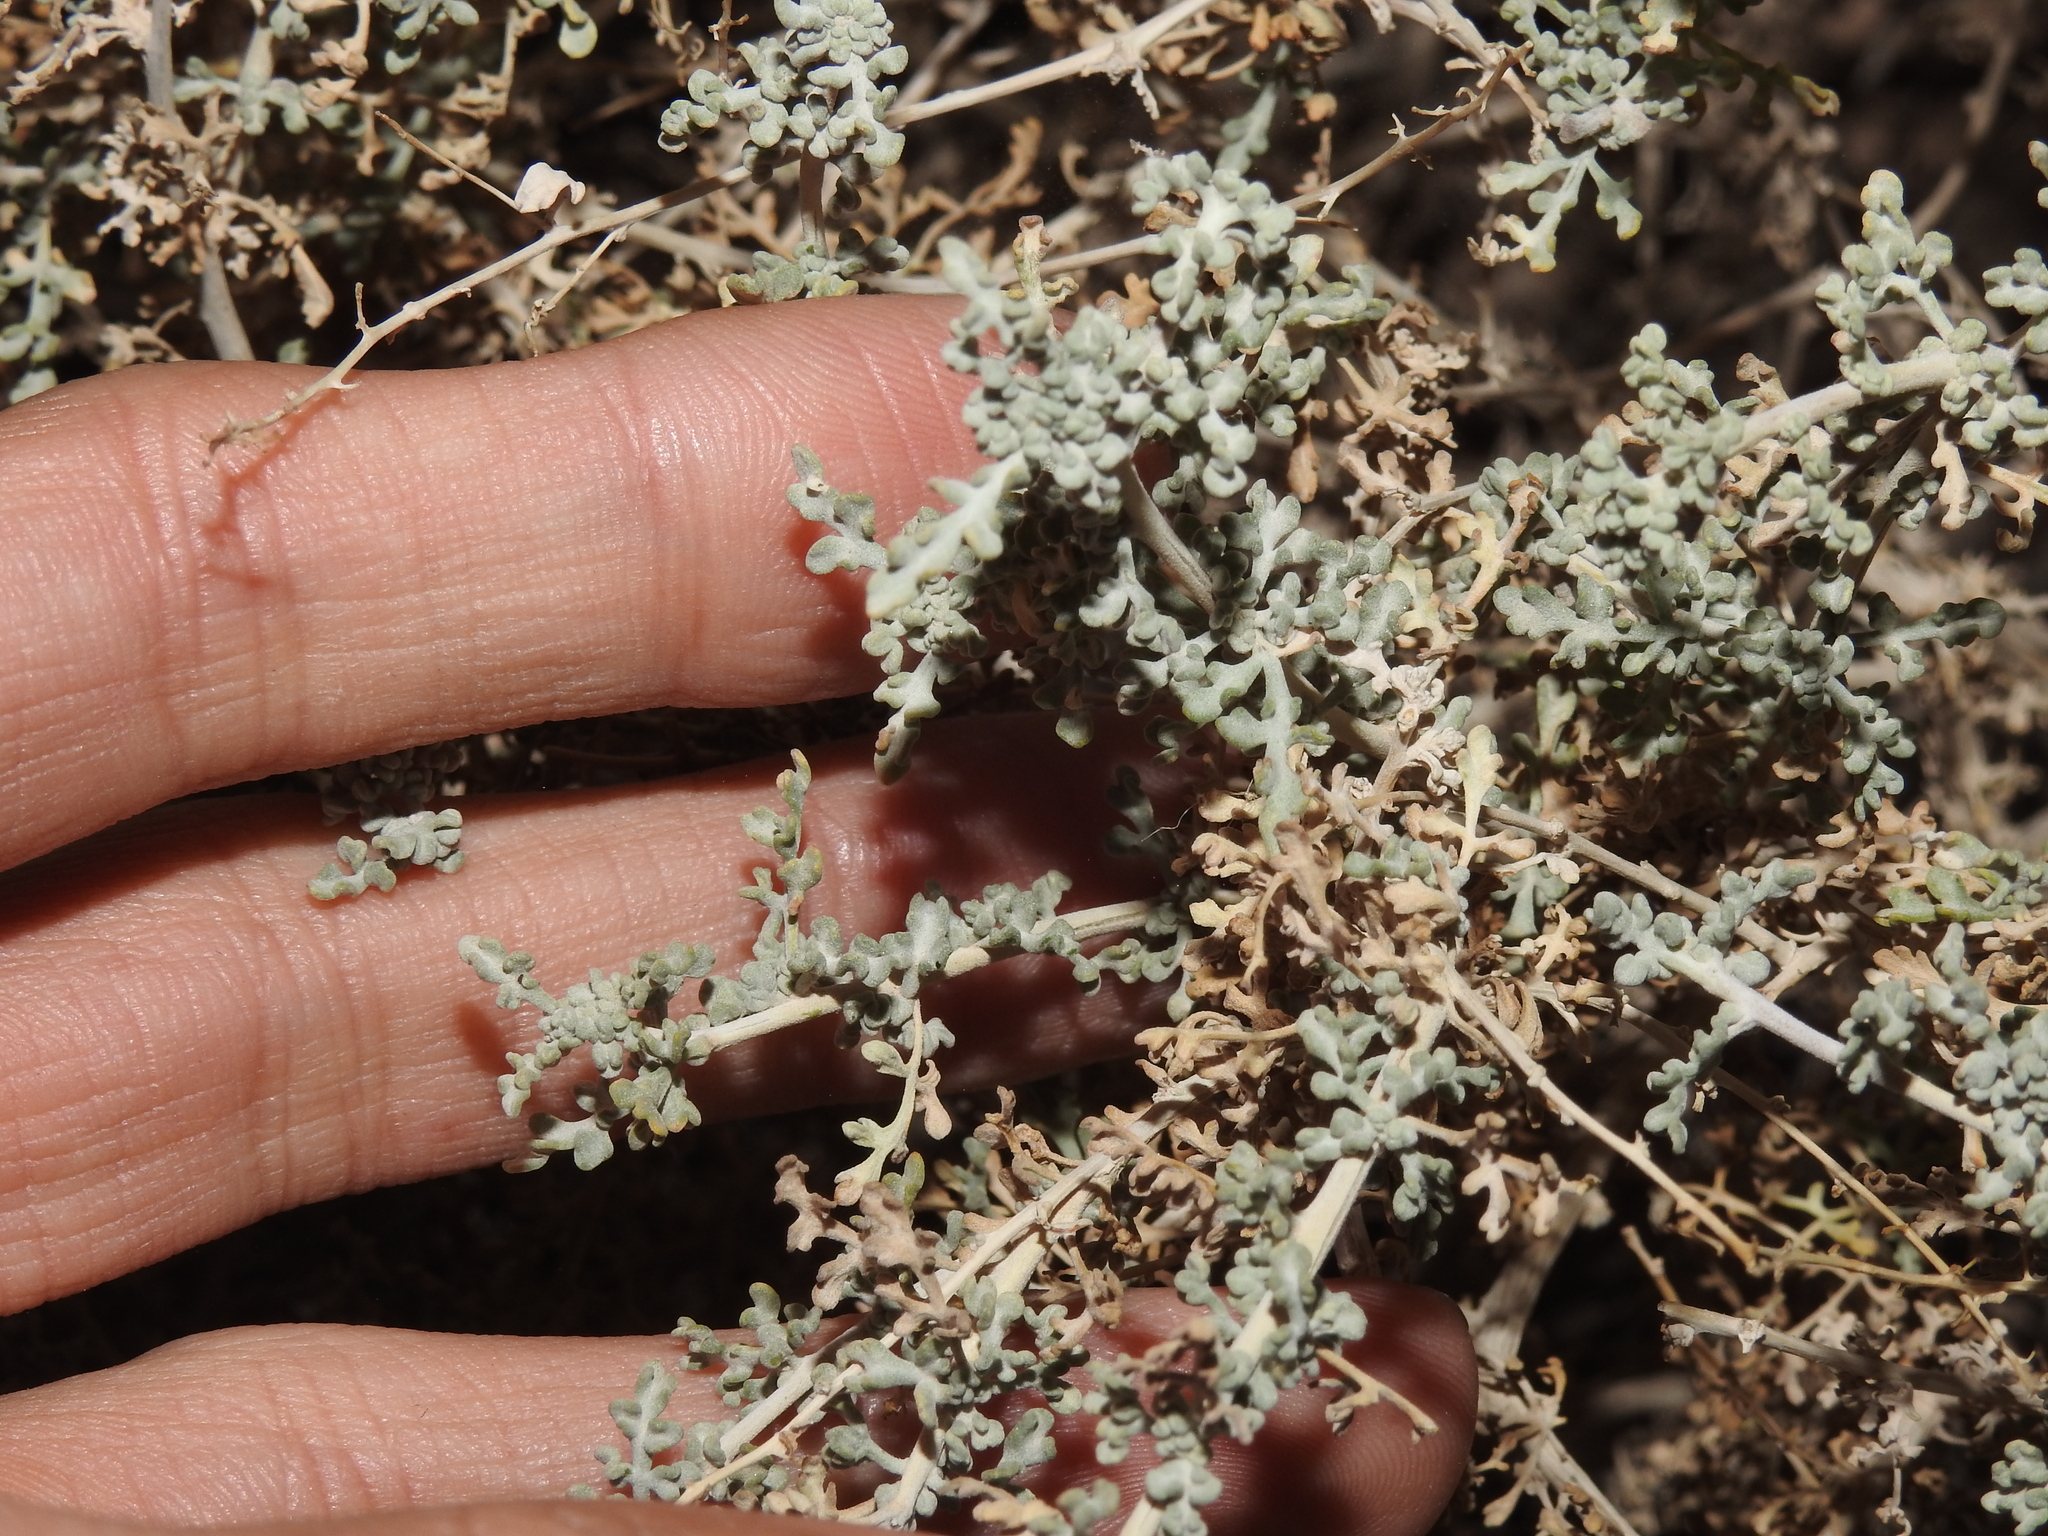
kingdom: Plantae
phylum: Tracheophyta
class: Magnoliopsida
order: Asterales
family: Asteraceae
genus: Ambrosia
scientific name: Ambrosia dumosa
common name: Bur-sage
